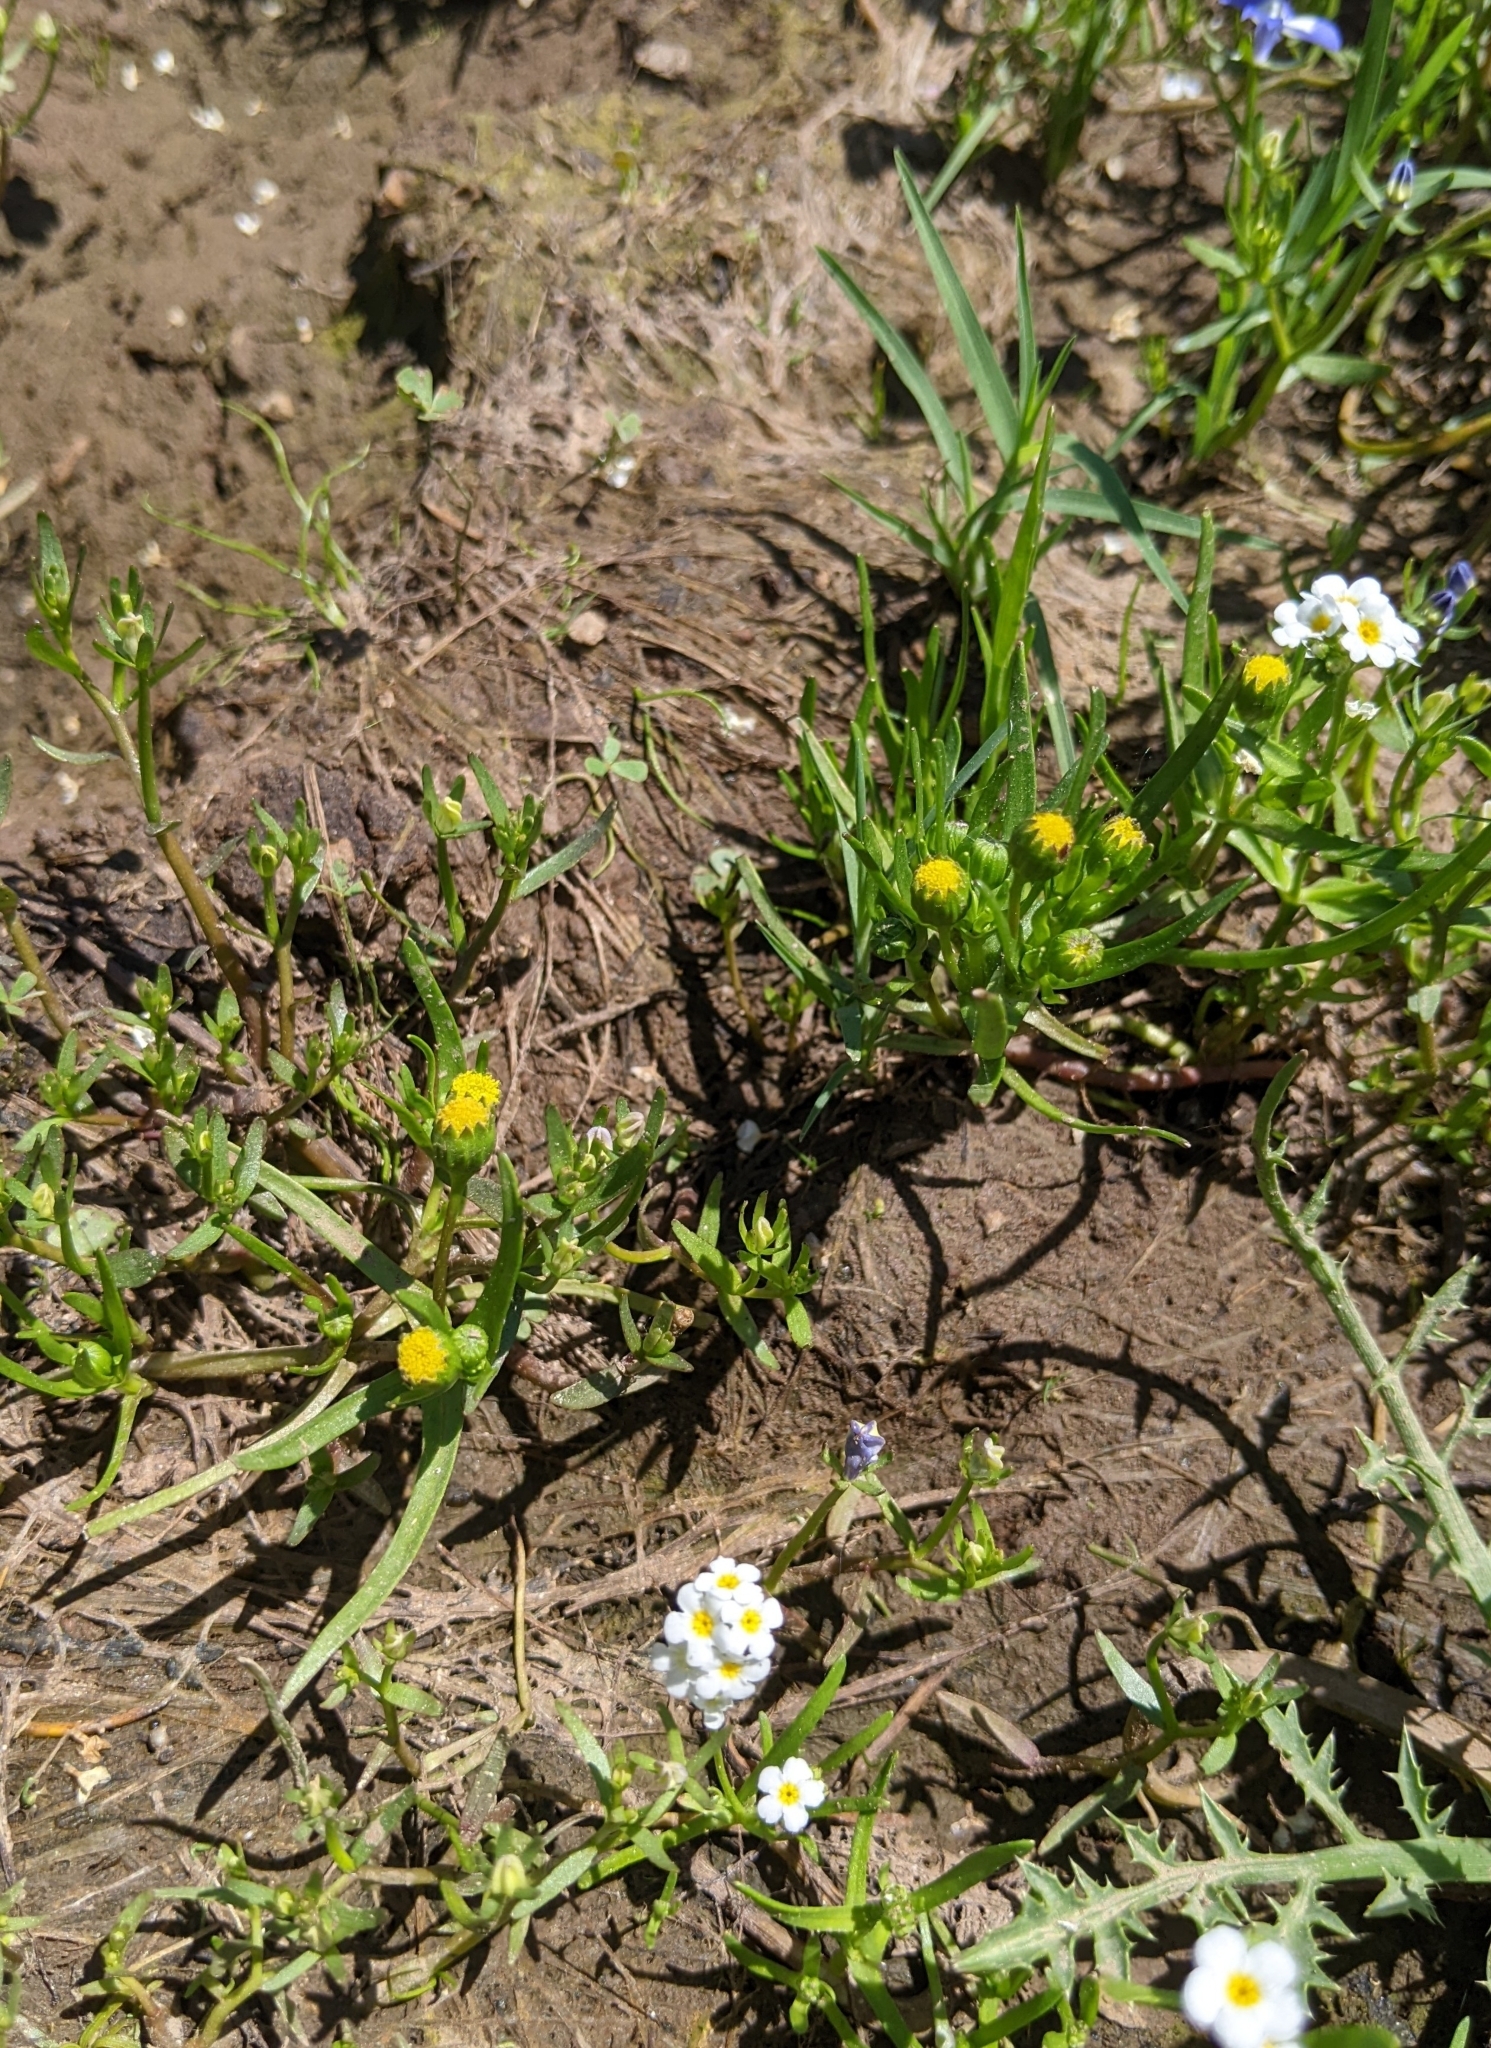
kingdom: Plantae
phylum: Tracheophyta
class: Magnoliopsida
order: Asterales
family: Asteraceae
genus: Lasthenia
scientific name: Lasthenia glaberrima
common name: Smooth goldfields
